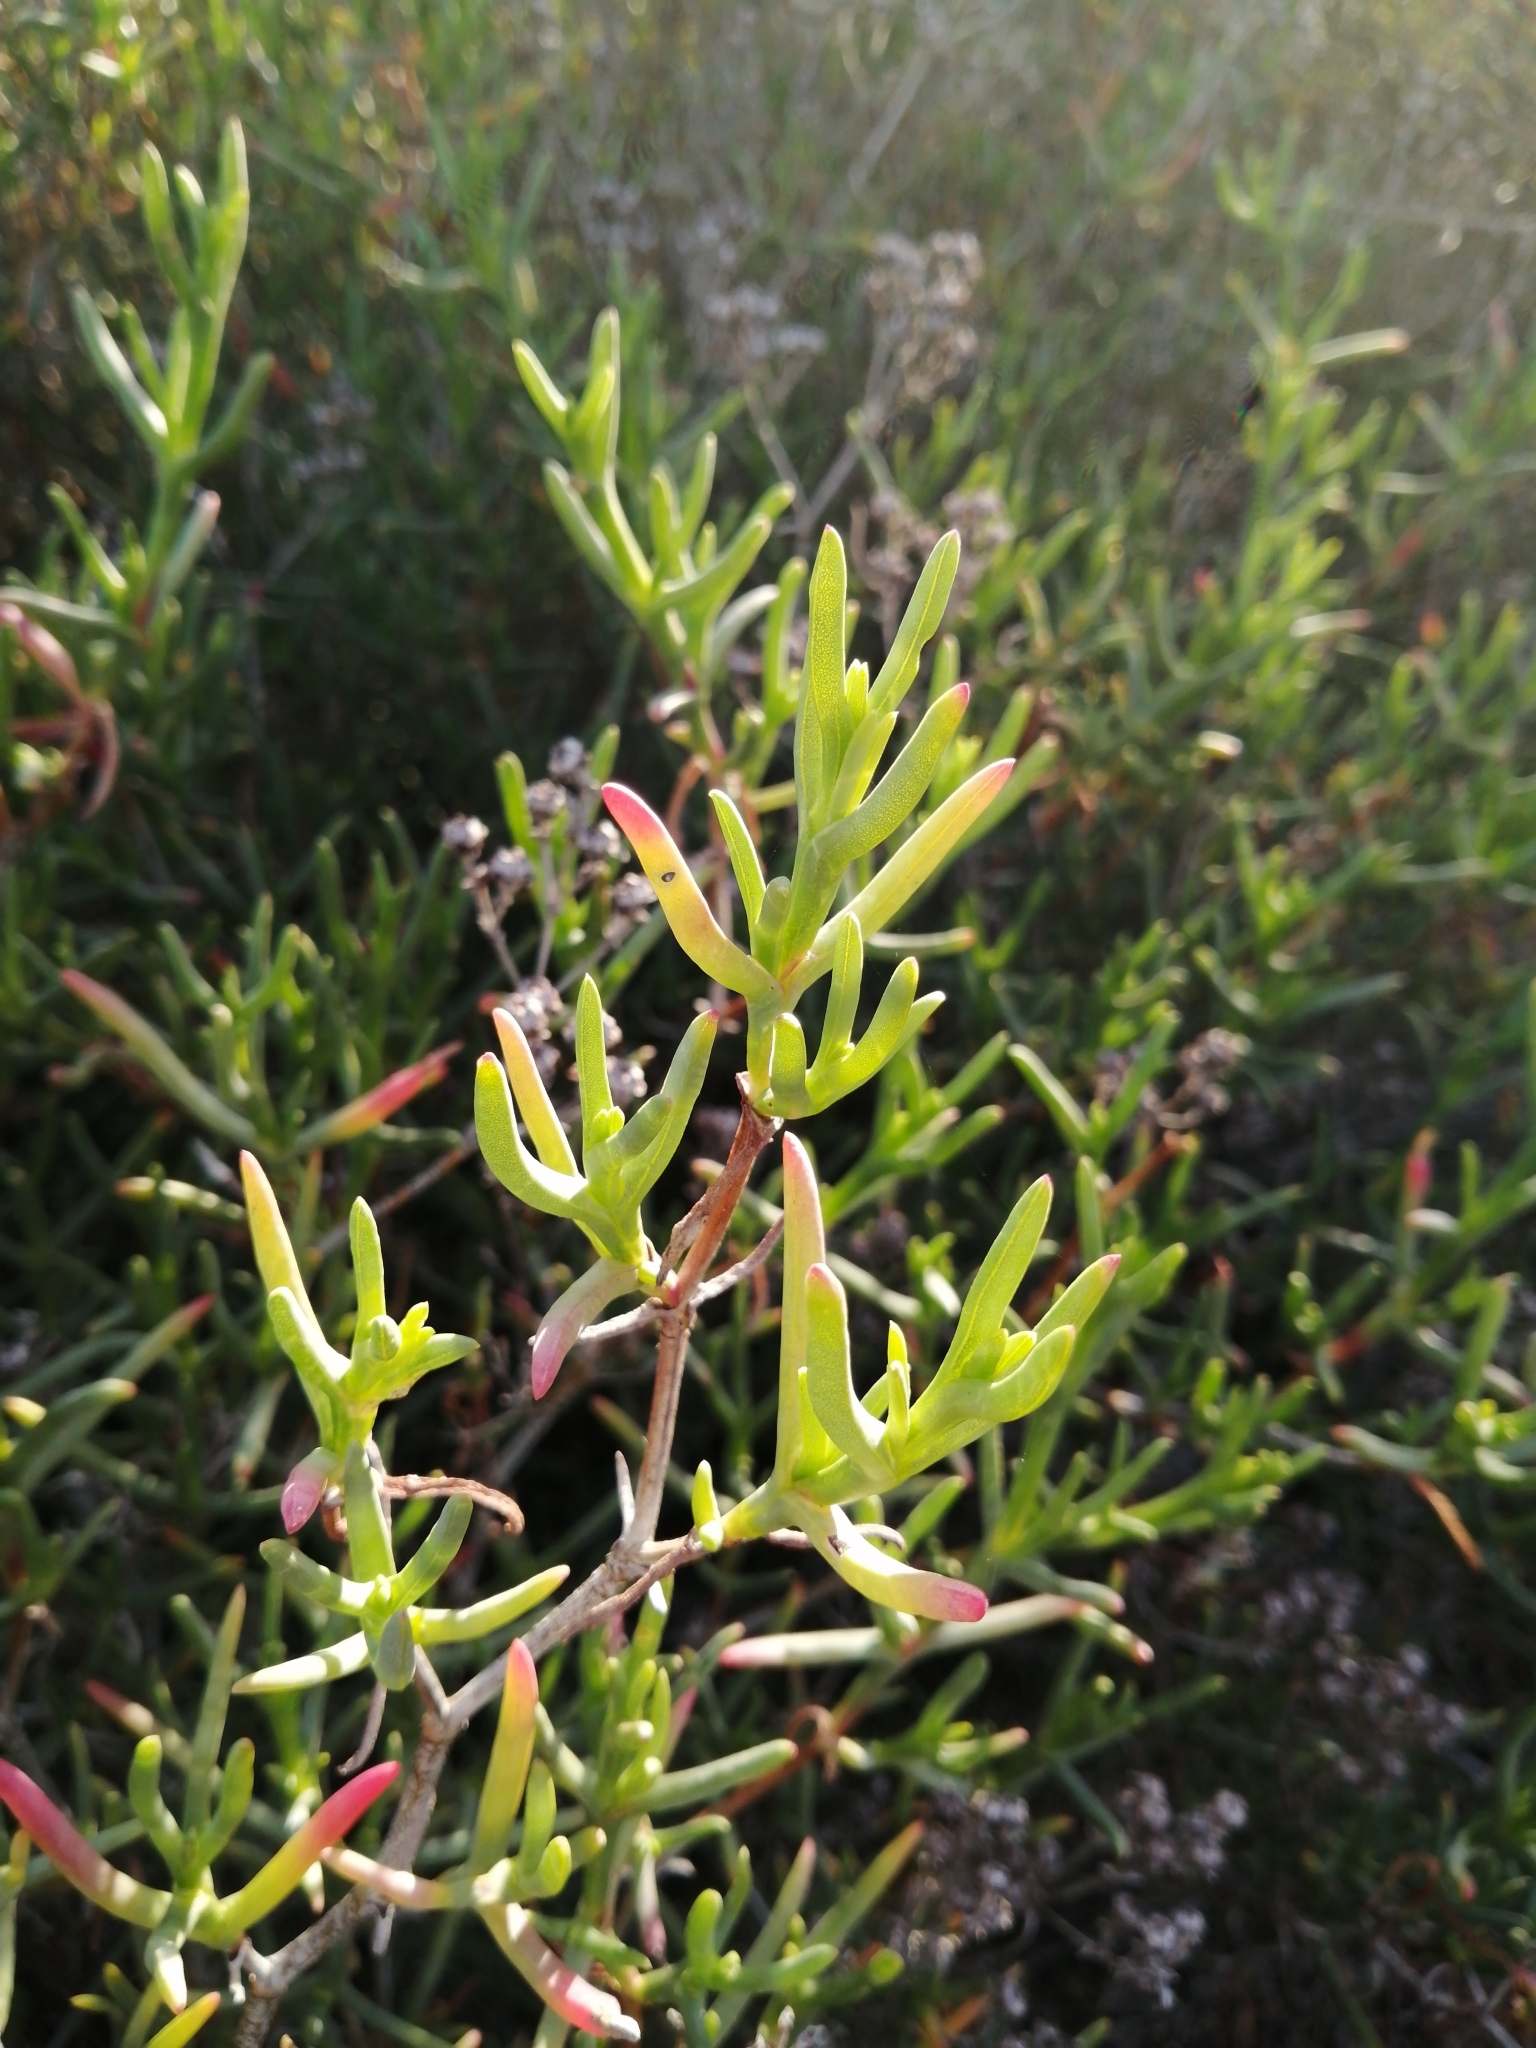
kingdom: Plantae
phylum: Tracheophyta
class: Magnoliopsida
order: Caryophyllales
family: Aizoaceae
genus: Ruschia
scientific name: Ruschia multiflora
